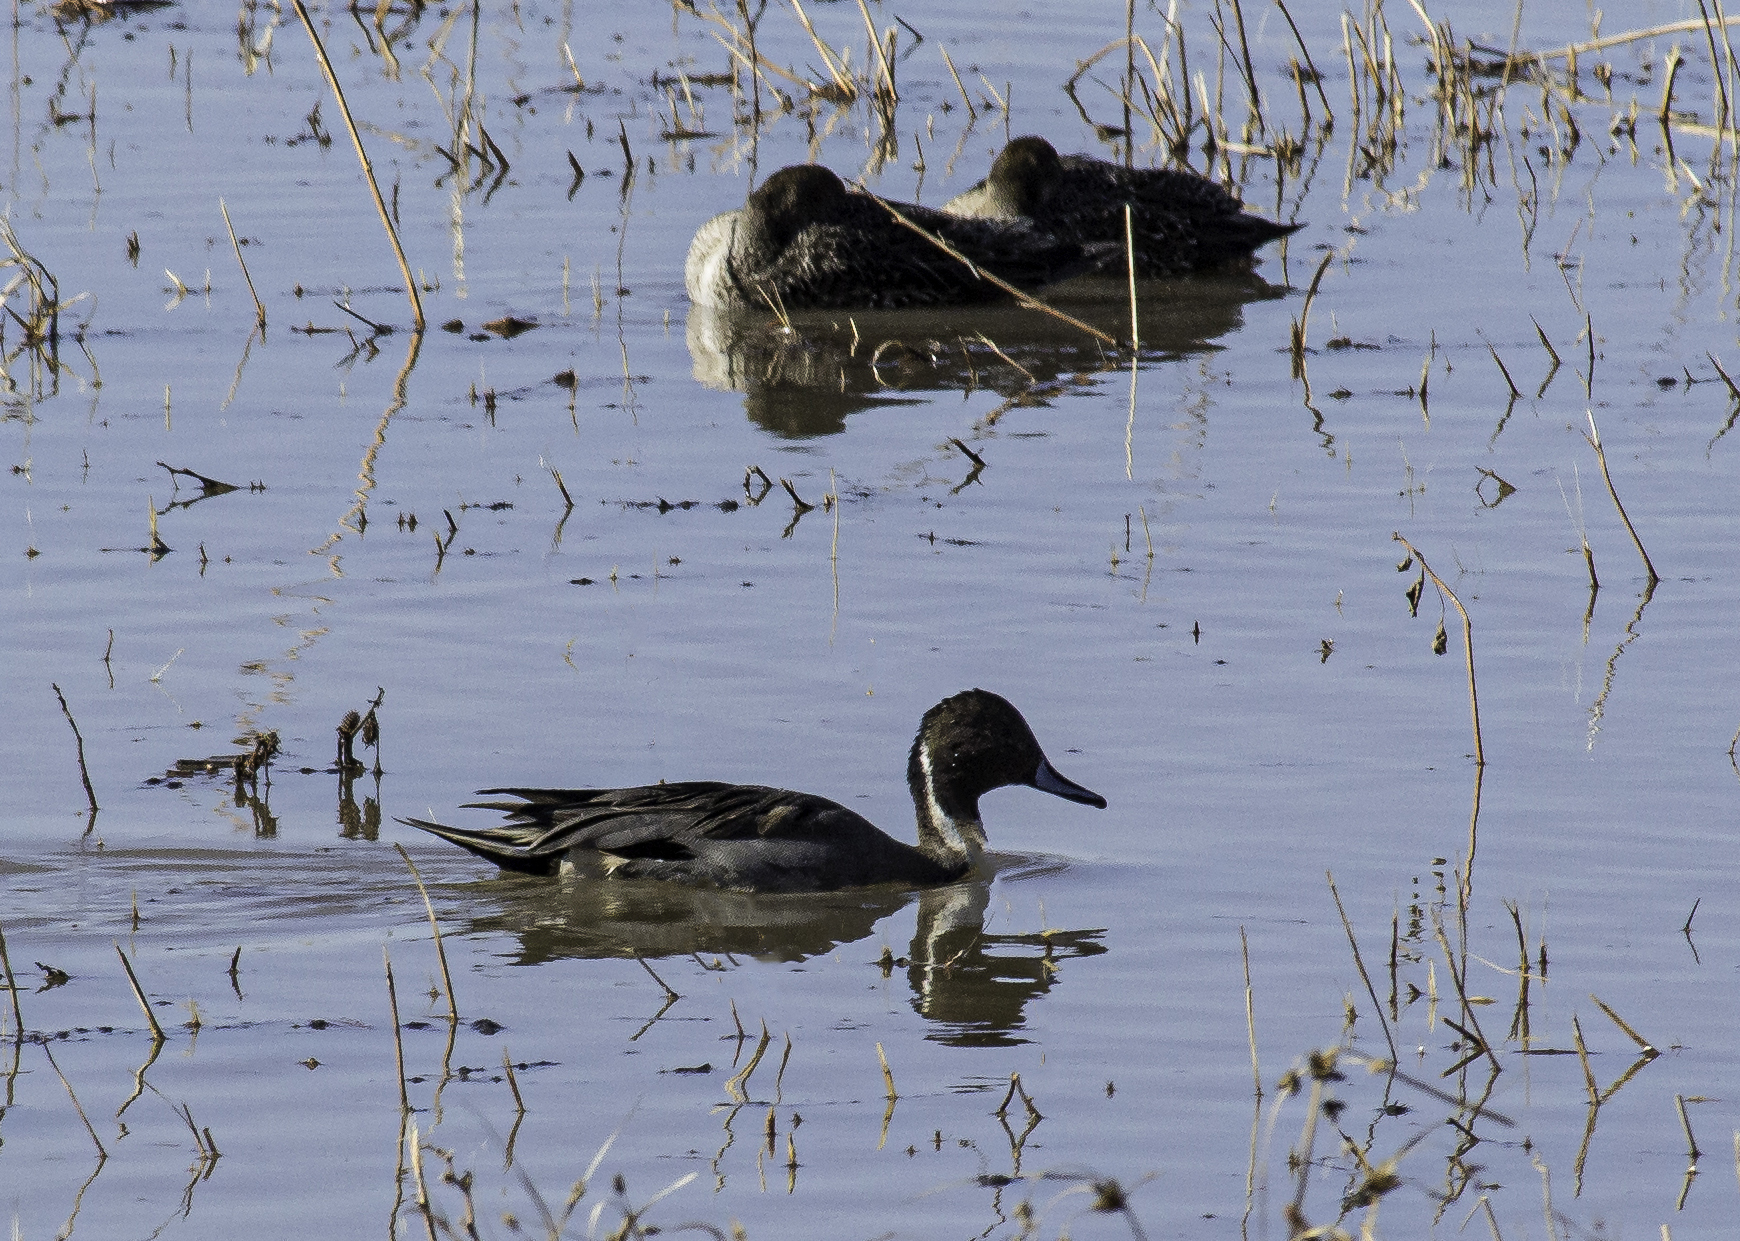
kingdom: Animalia
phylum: Chordata
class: Aves
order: Anseriformes
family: Anatidae
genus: Anas
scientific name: Anas acuta
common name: Northern pintail
